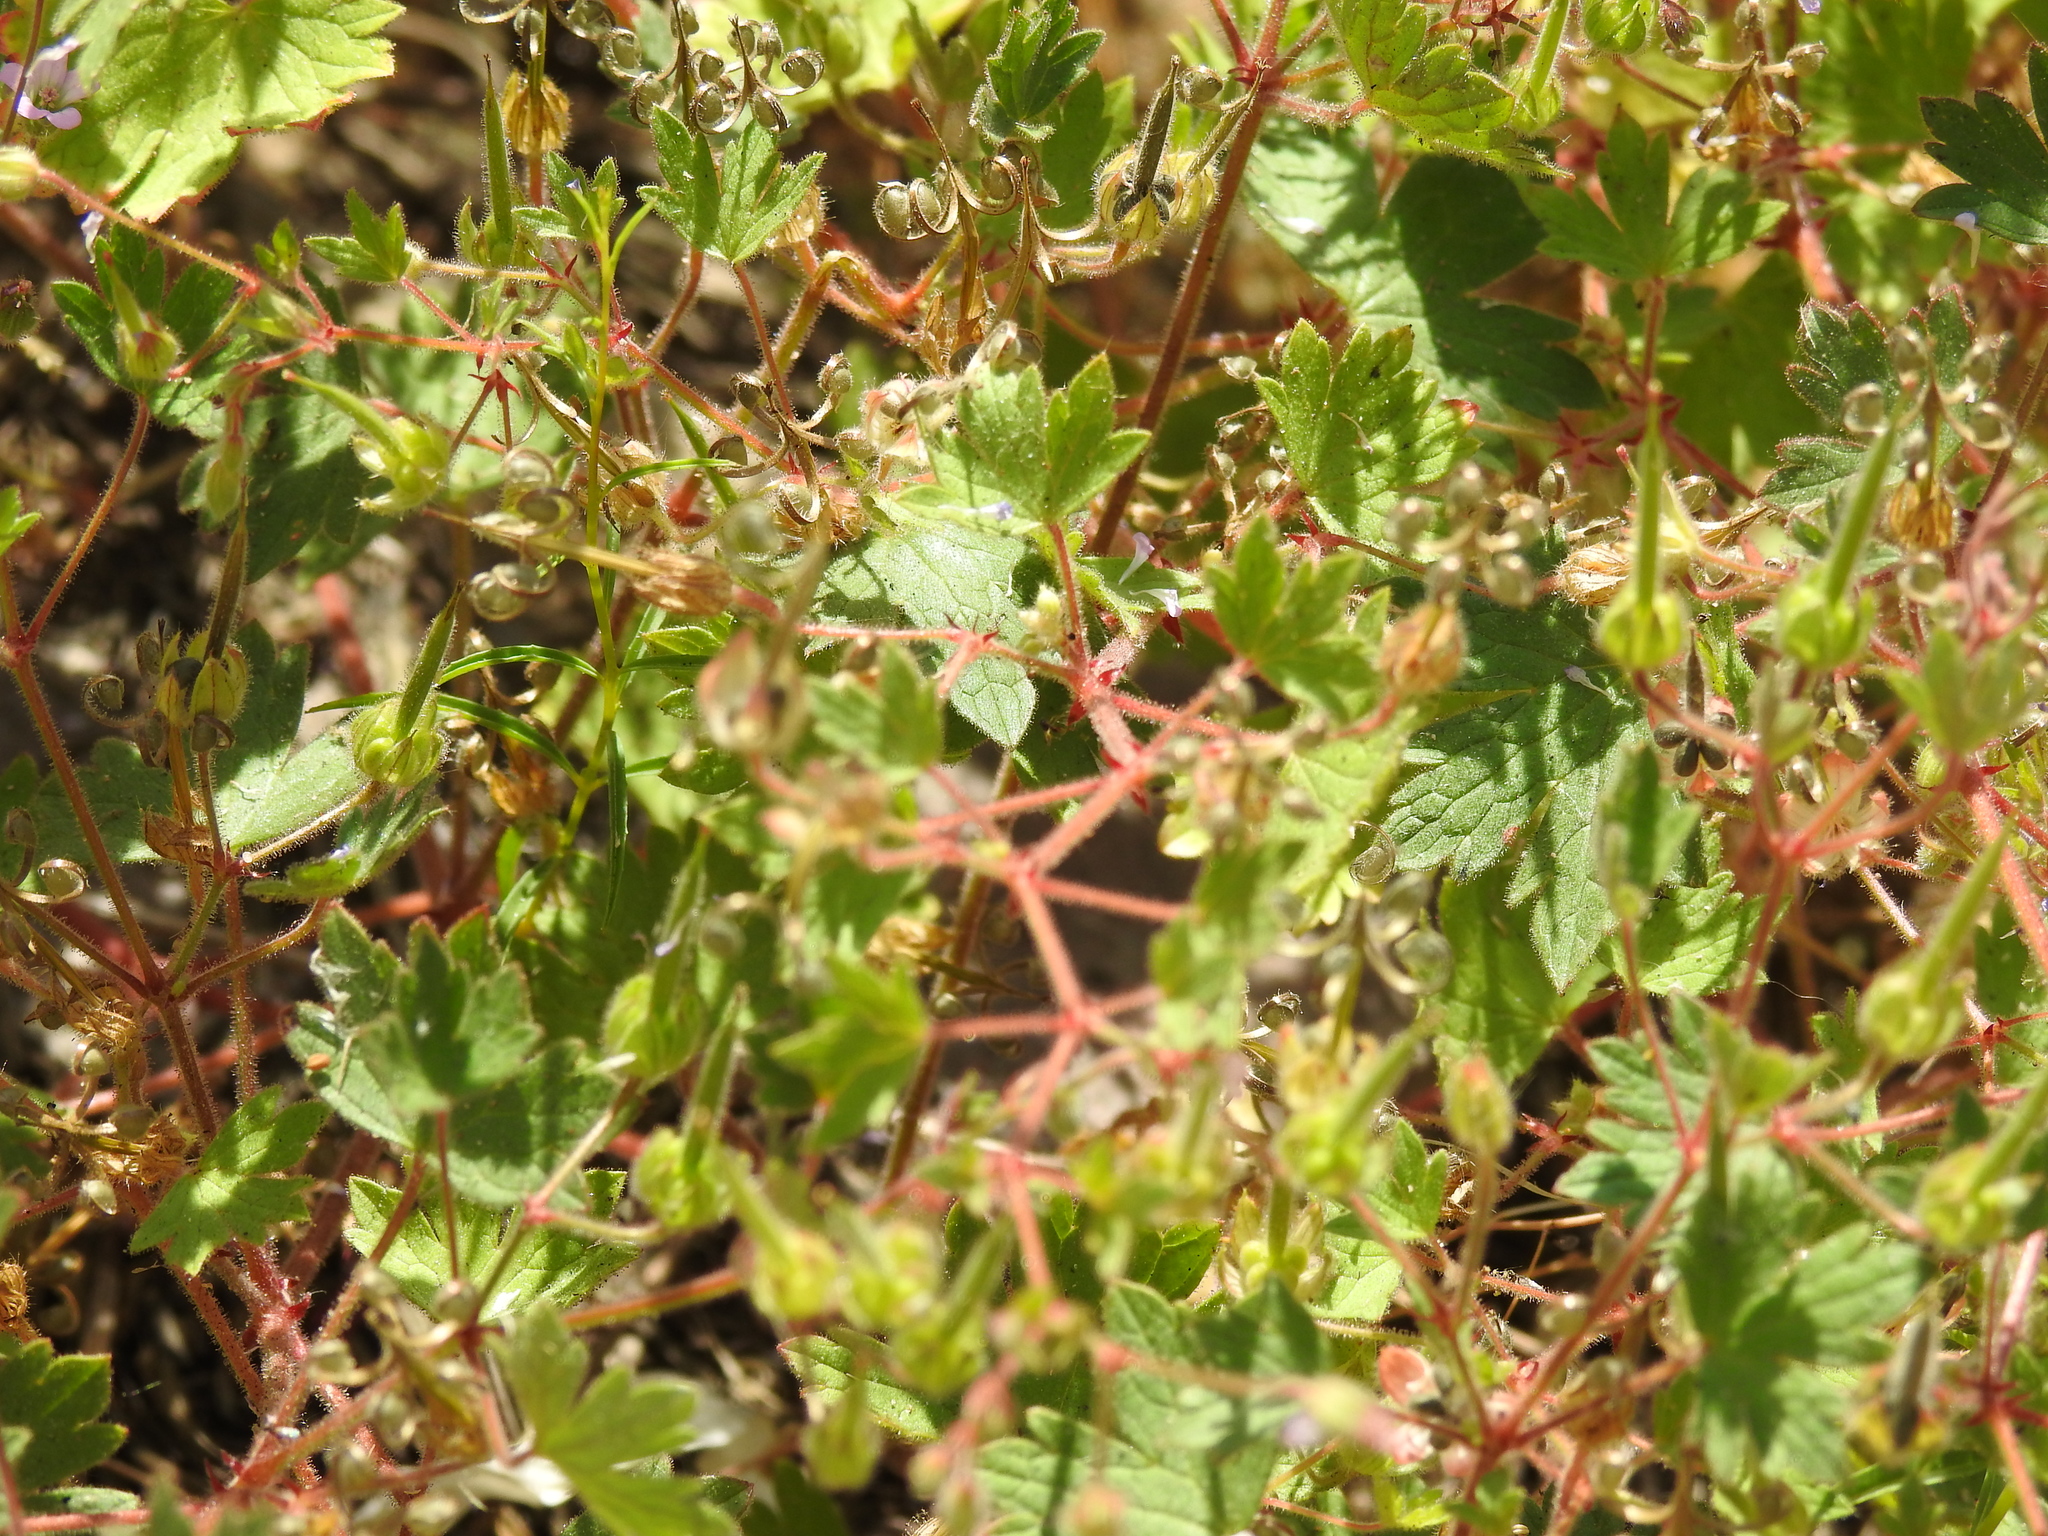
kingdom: Plantae
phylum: Tracheophyta
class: Magnoliopsida
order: Geraniales
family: Geraniaceae
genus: Geranium
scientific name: Geranium rotundifolium
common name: Round-leaved crane's-bill
